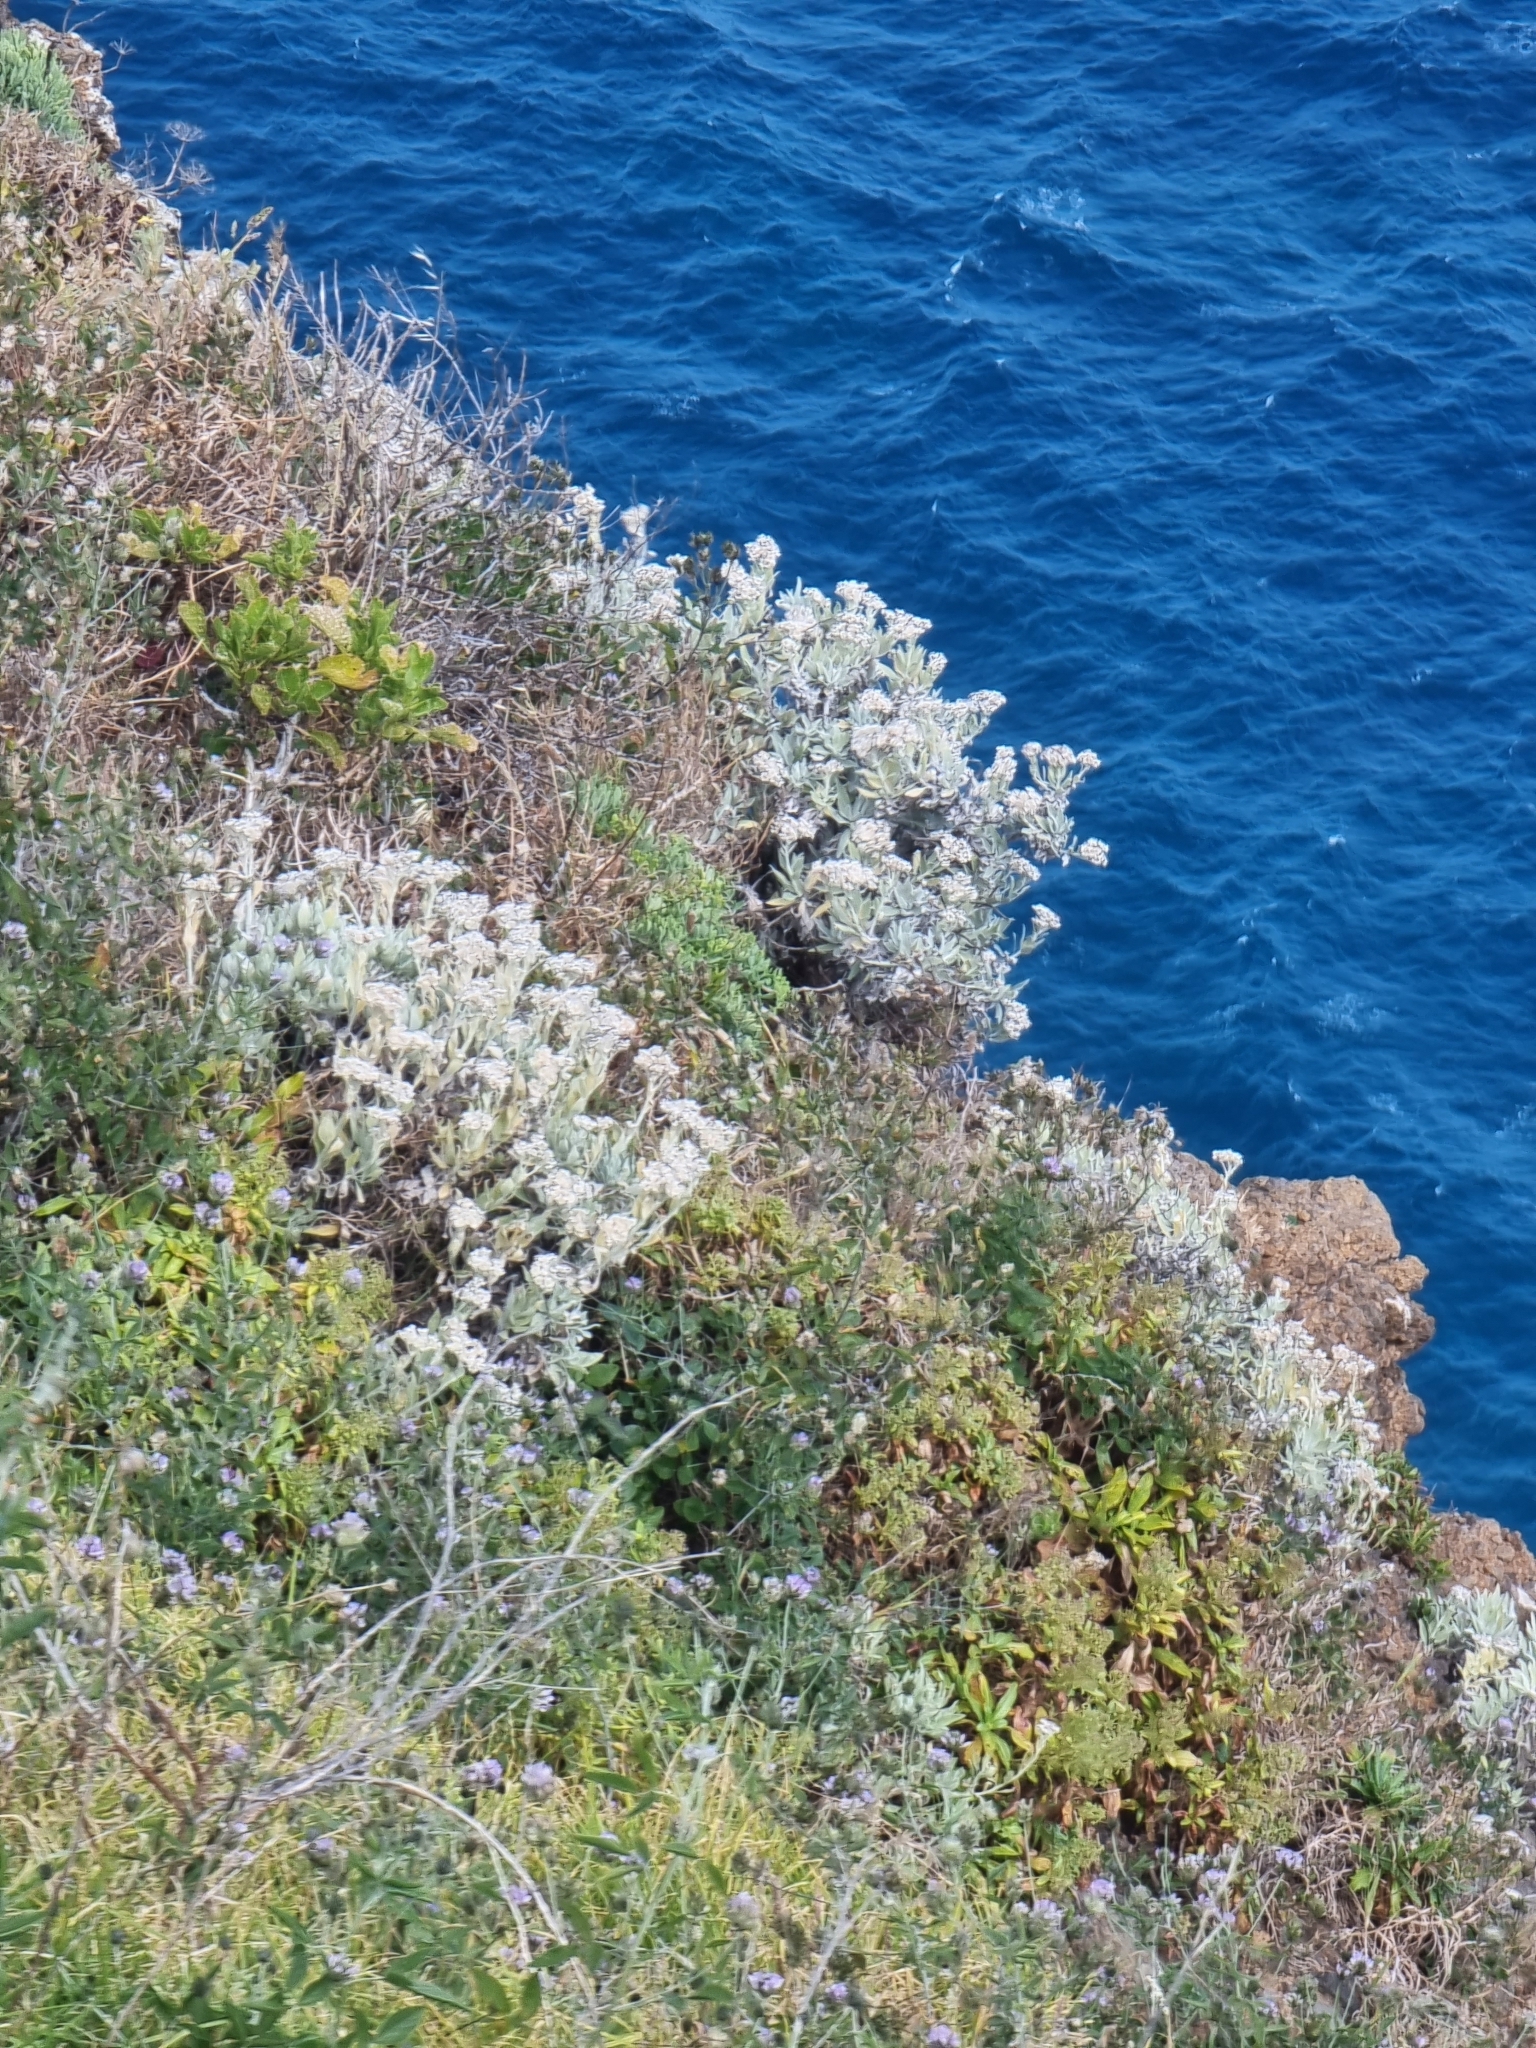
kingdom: Plantae
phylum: Tracheophyta
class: Magnoliopsida
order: Asterales
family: Asteraceae
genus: Helichrysum
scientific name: Helichrysum melaleucum
